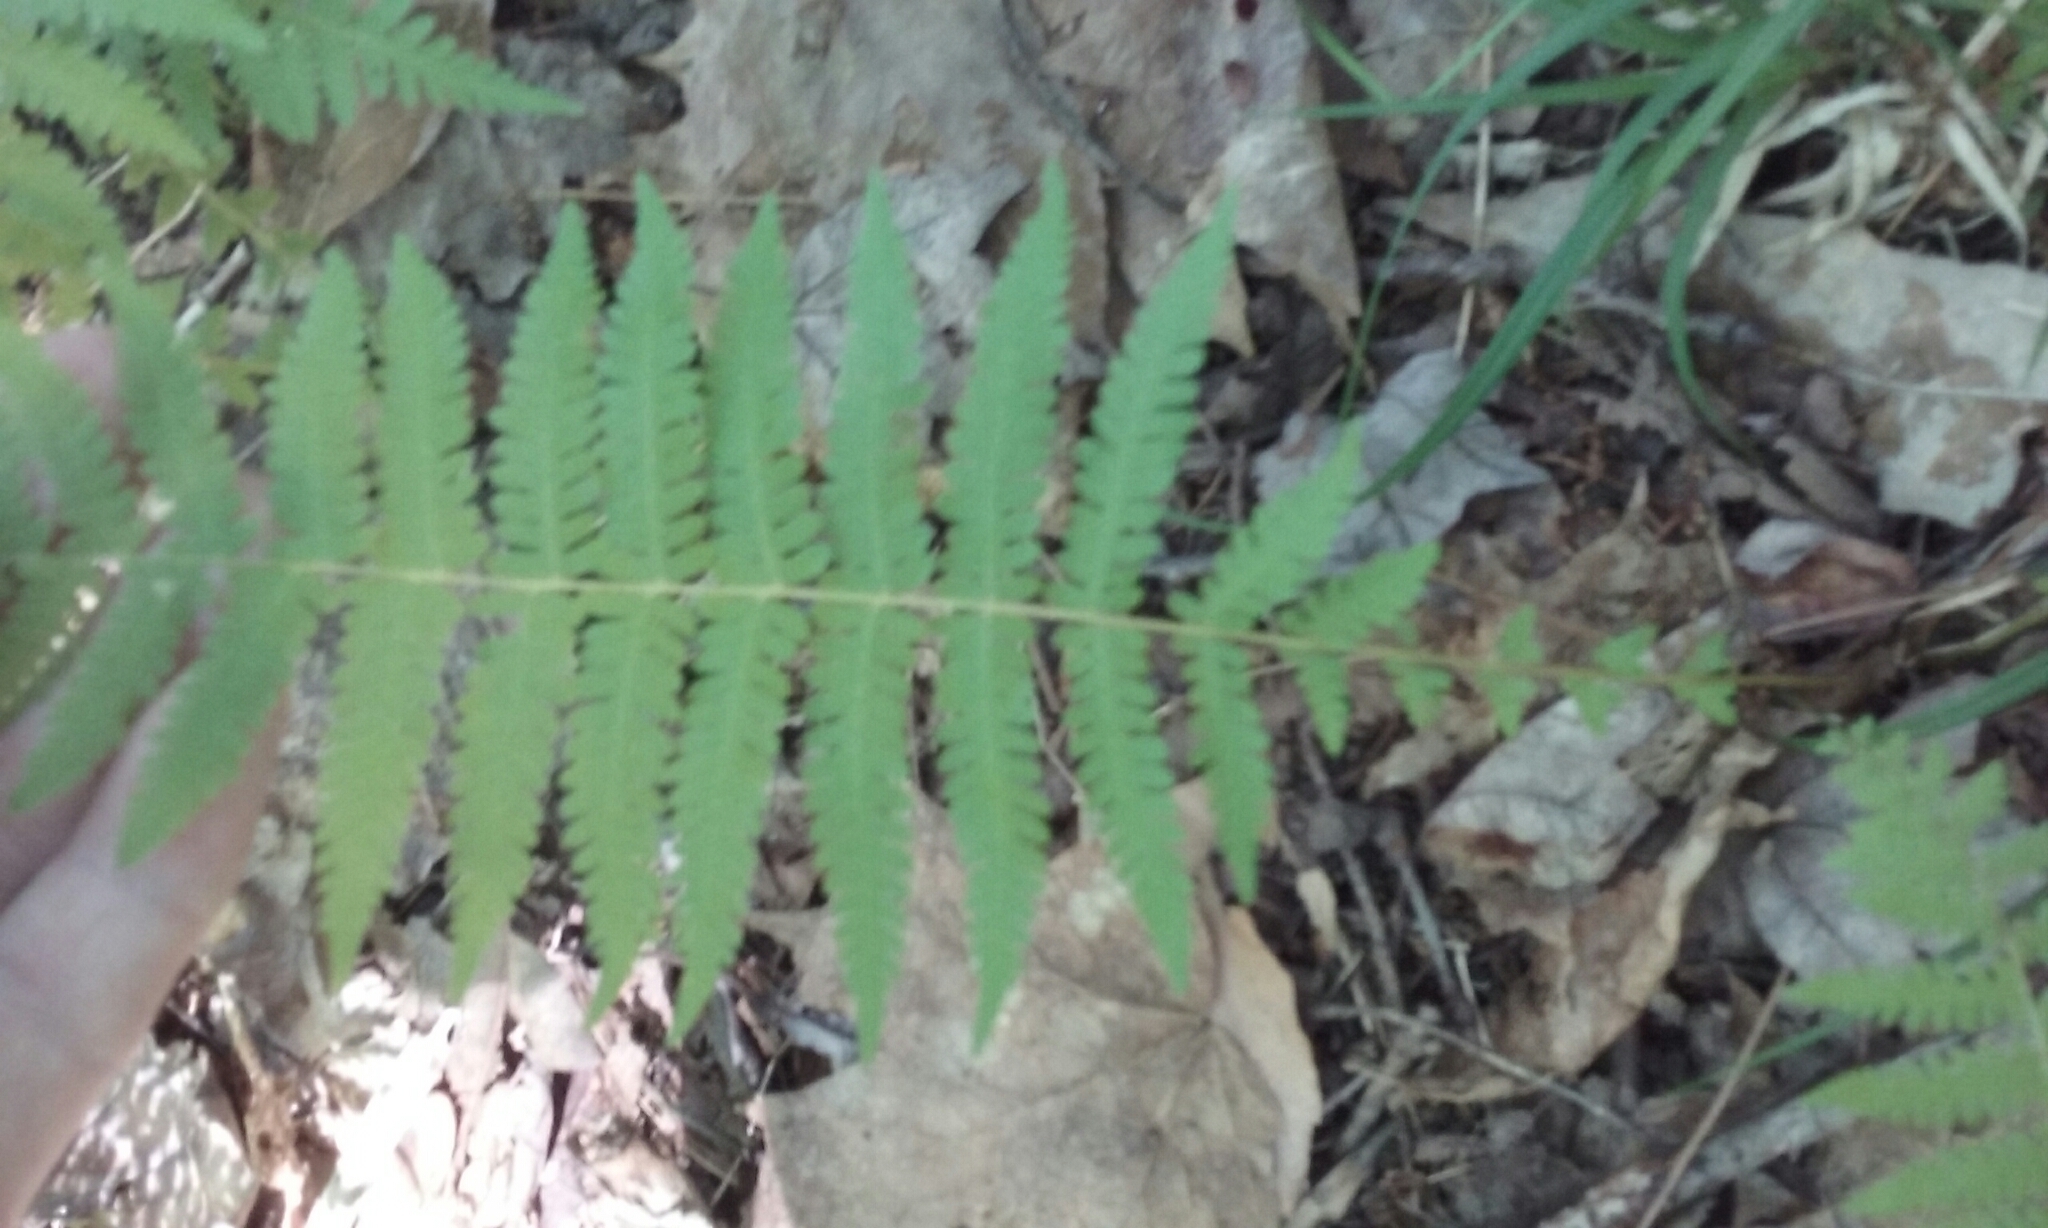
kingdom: Plantae
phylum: Tracheophyta
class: Polypodiopsida
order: Polypodiales
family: Thelypteridaceae
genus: Amauropelta
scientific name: Amauropelta noveboracensis
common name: New york fern
